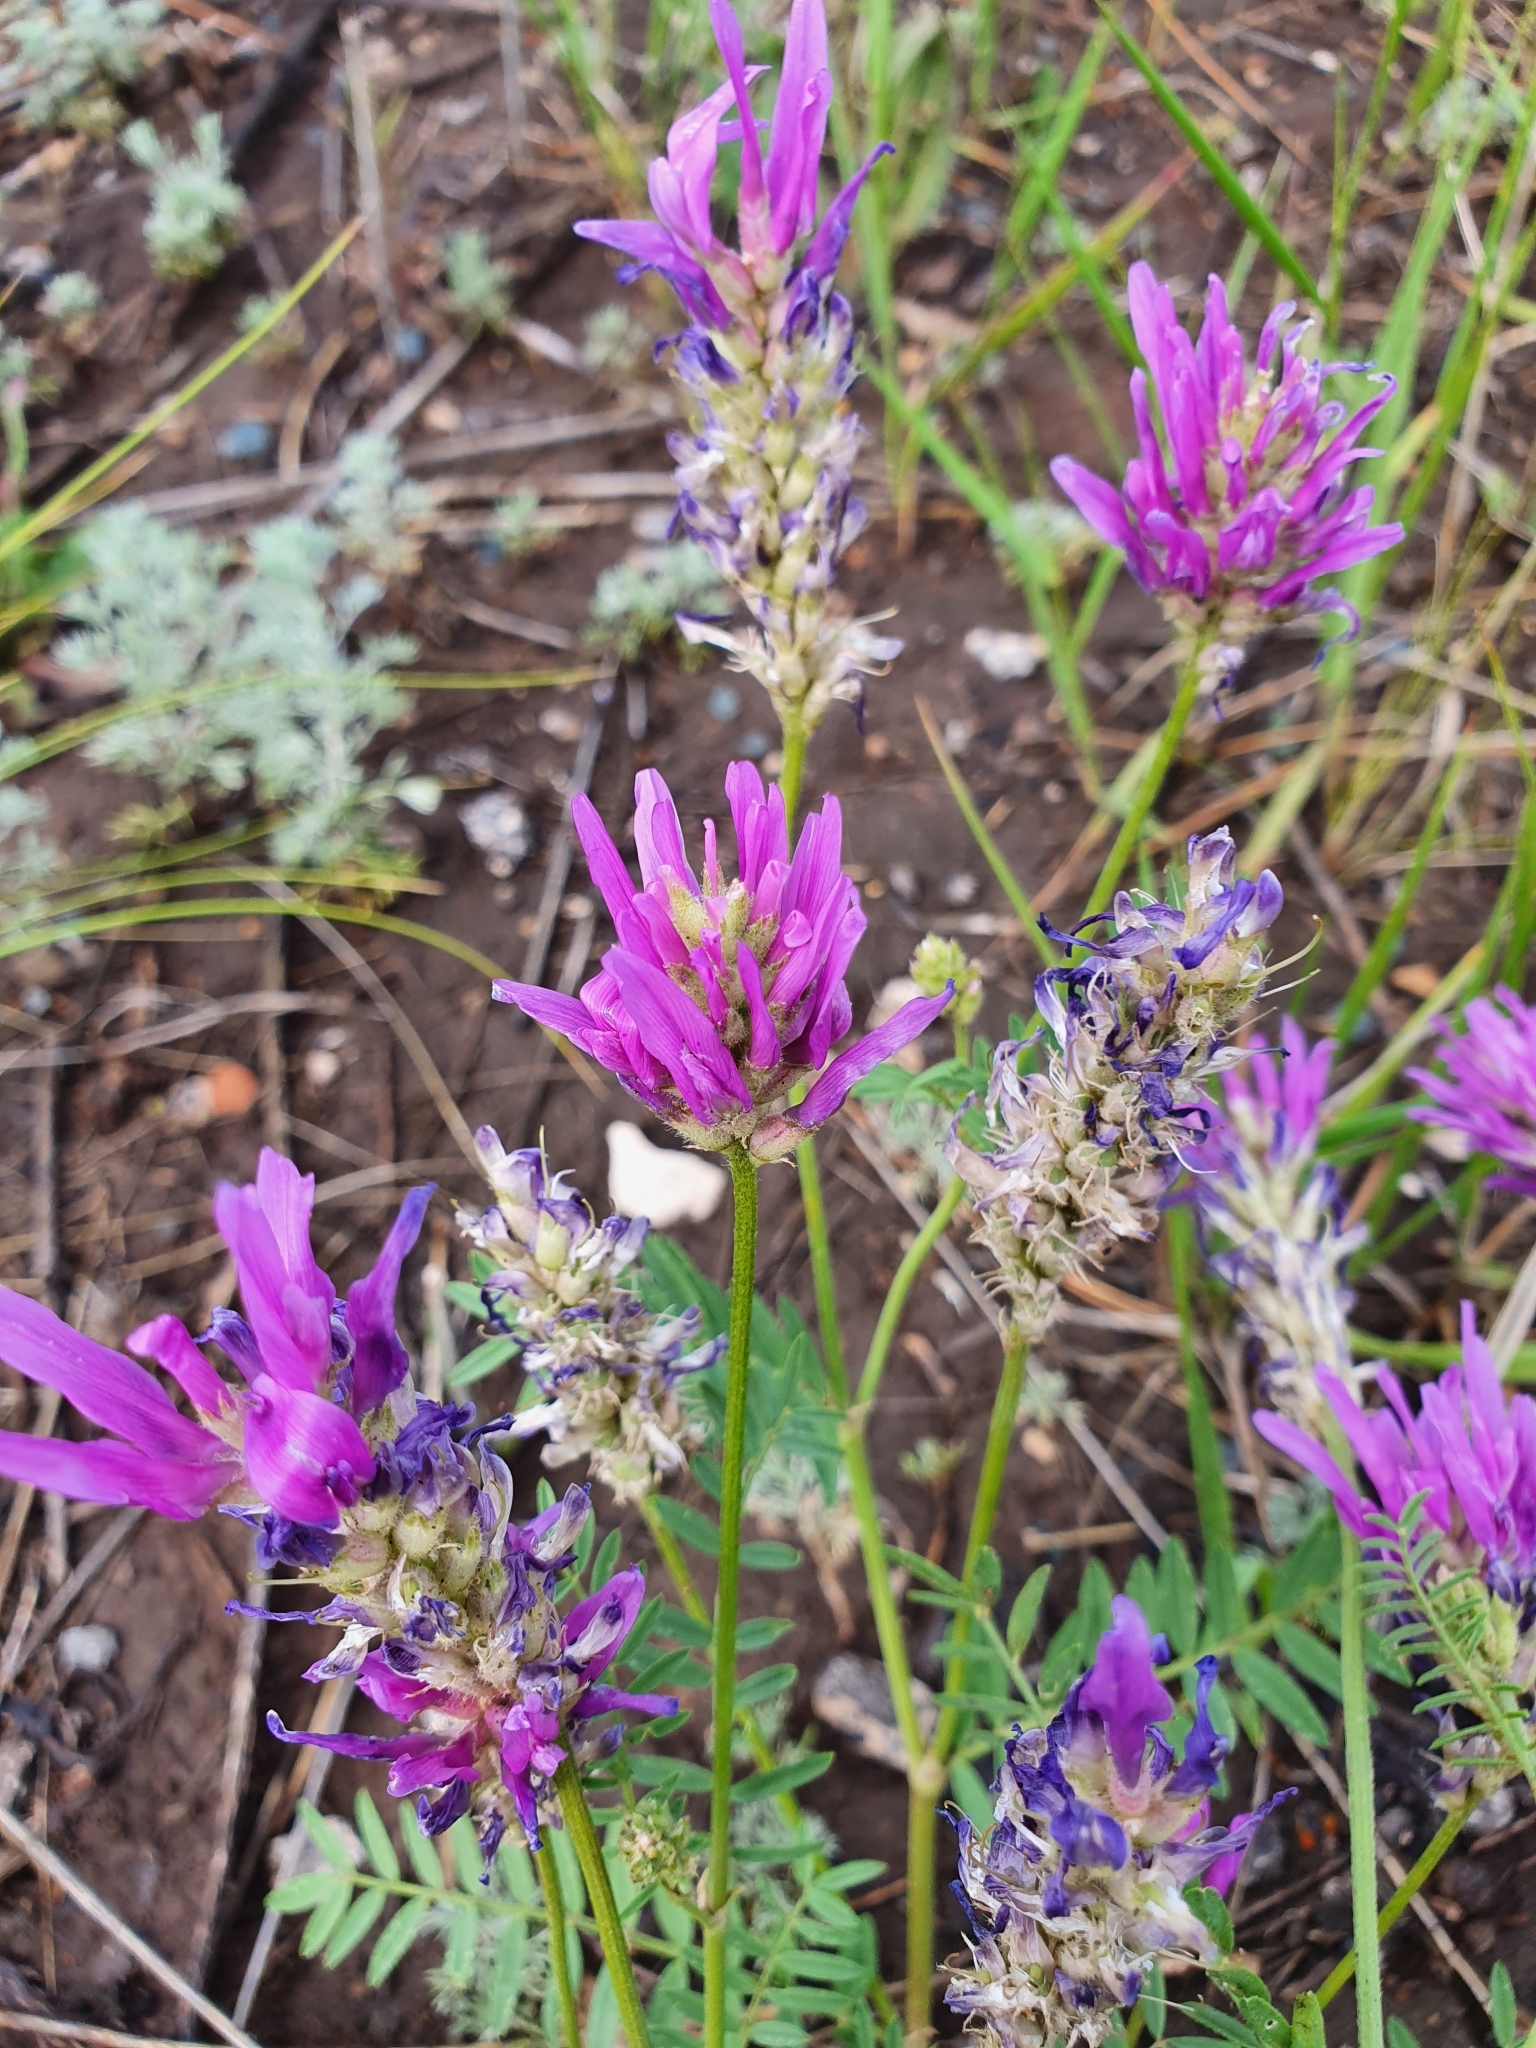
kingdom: Plantae
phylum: Tracheophyta
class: Magnoliopsida
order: Fabales
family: Fabaceae
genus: Astragalus
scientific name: Astragalus onobrychis
